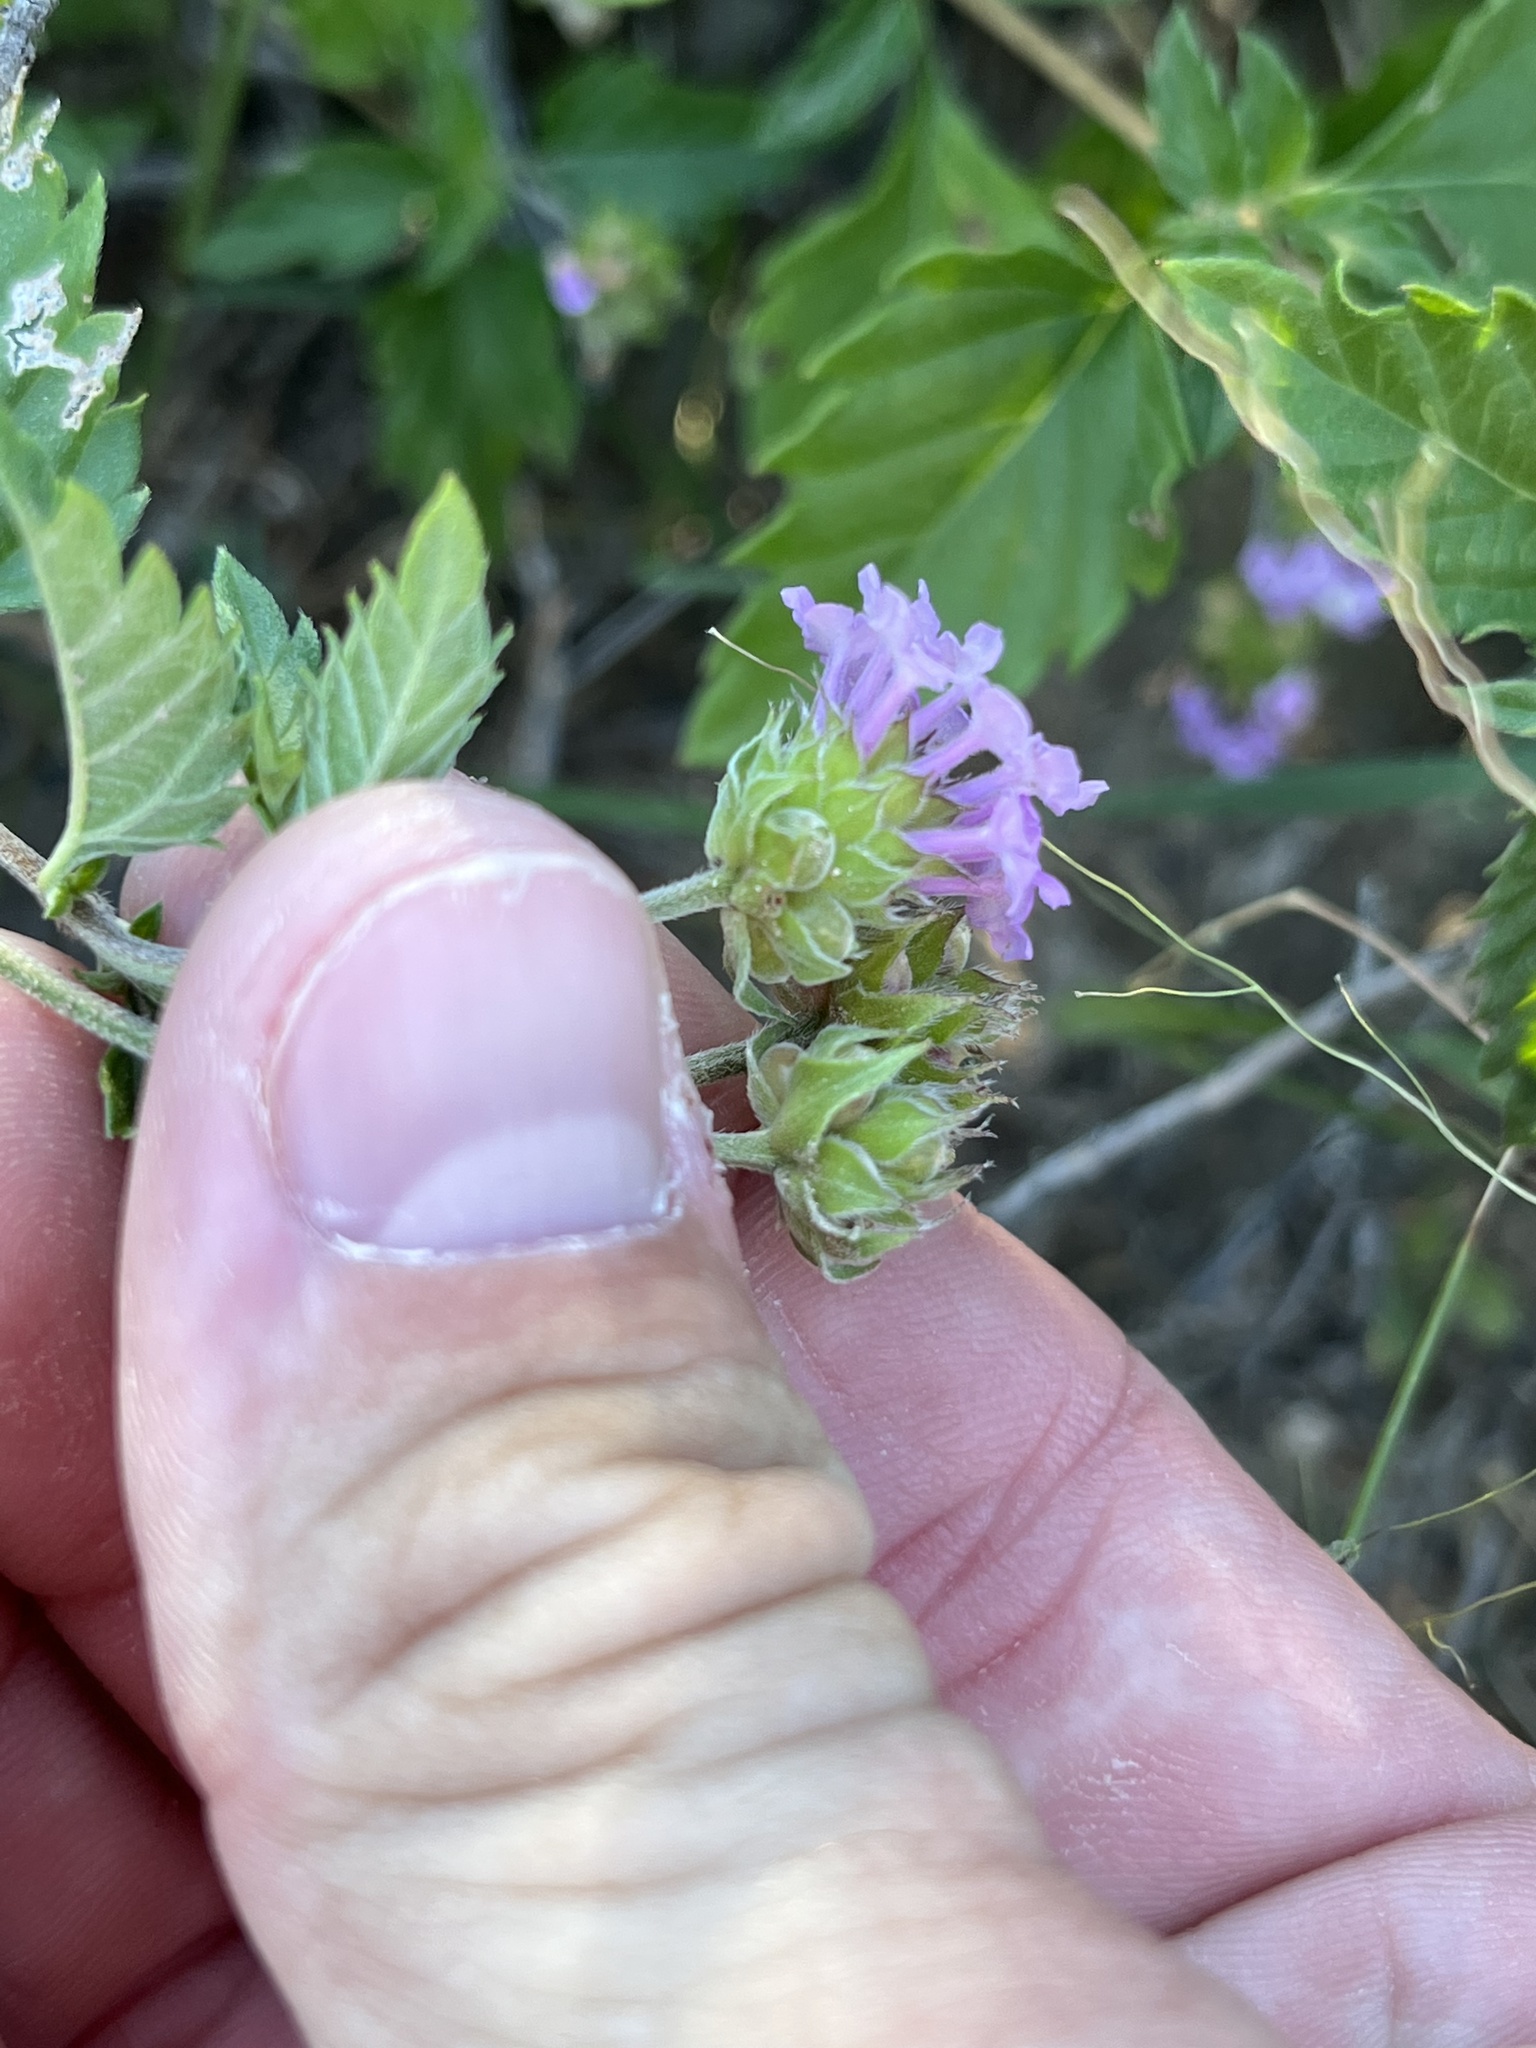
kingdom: Plantae
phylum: Tracheophyta
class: Magnoliopsida
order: Lamiales
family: Verbenaceae
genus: Lantana
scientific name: Lantana achyranthifolia
